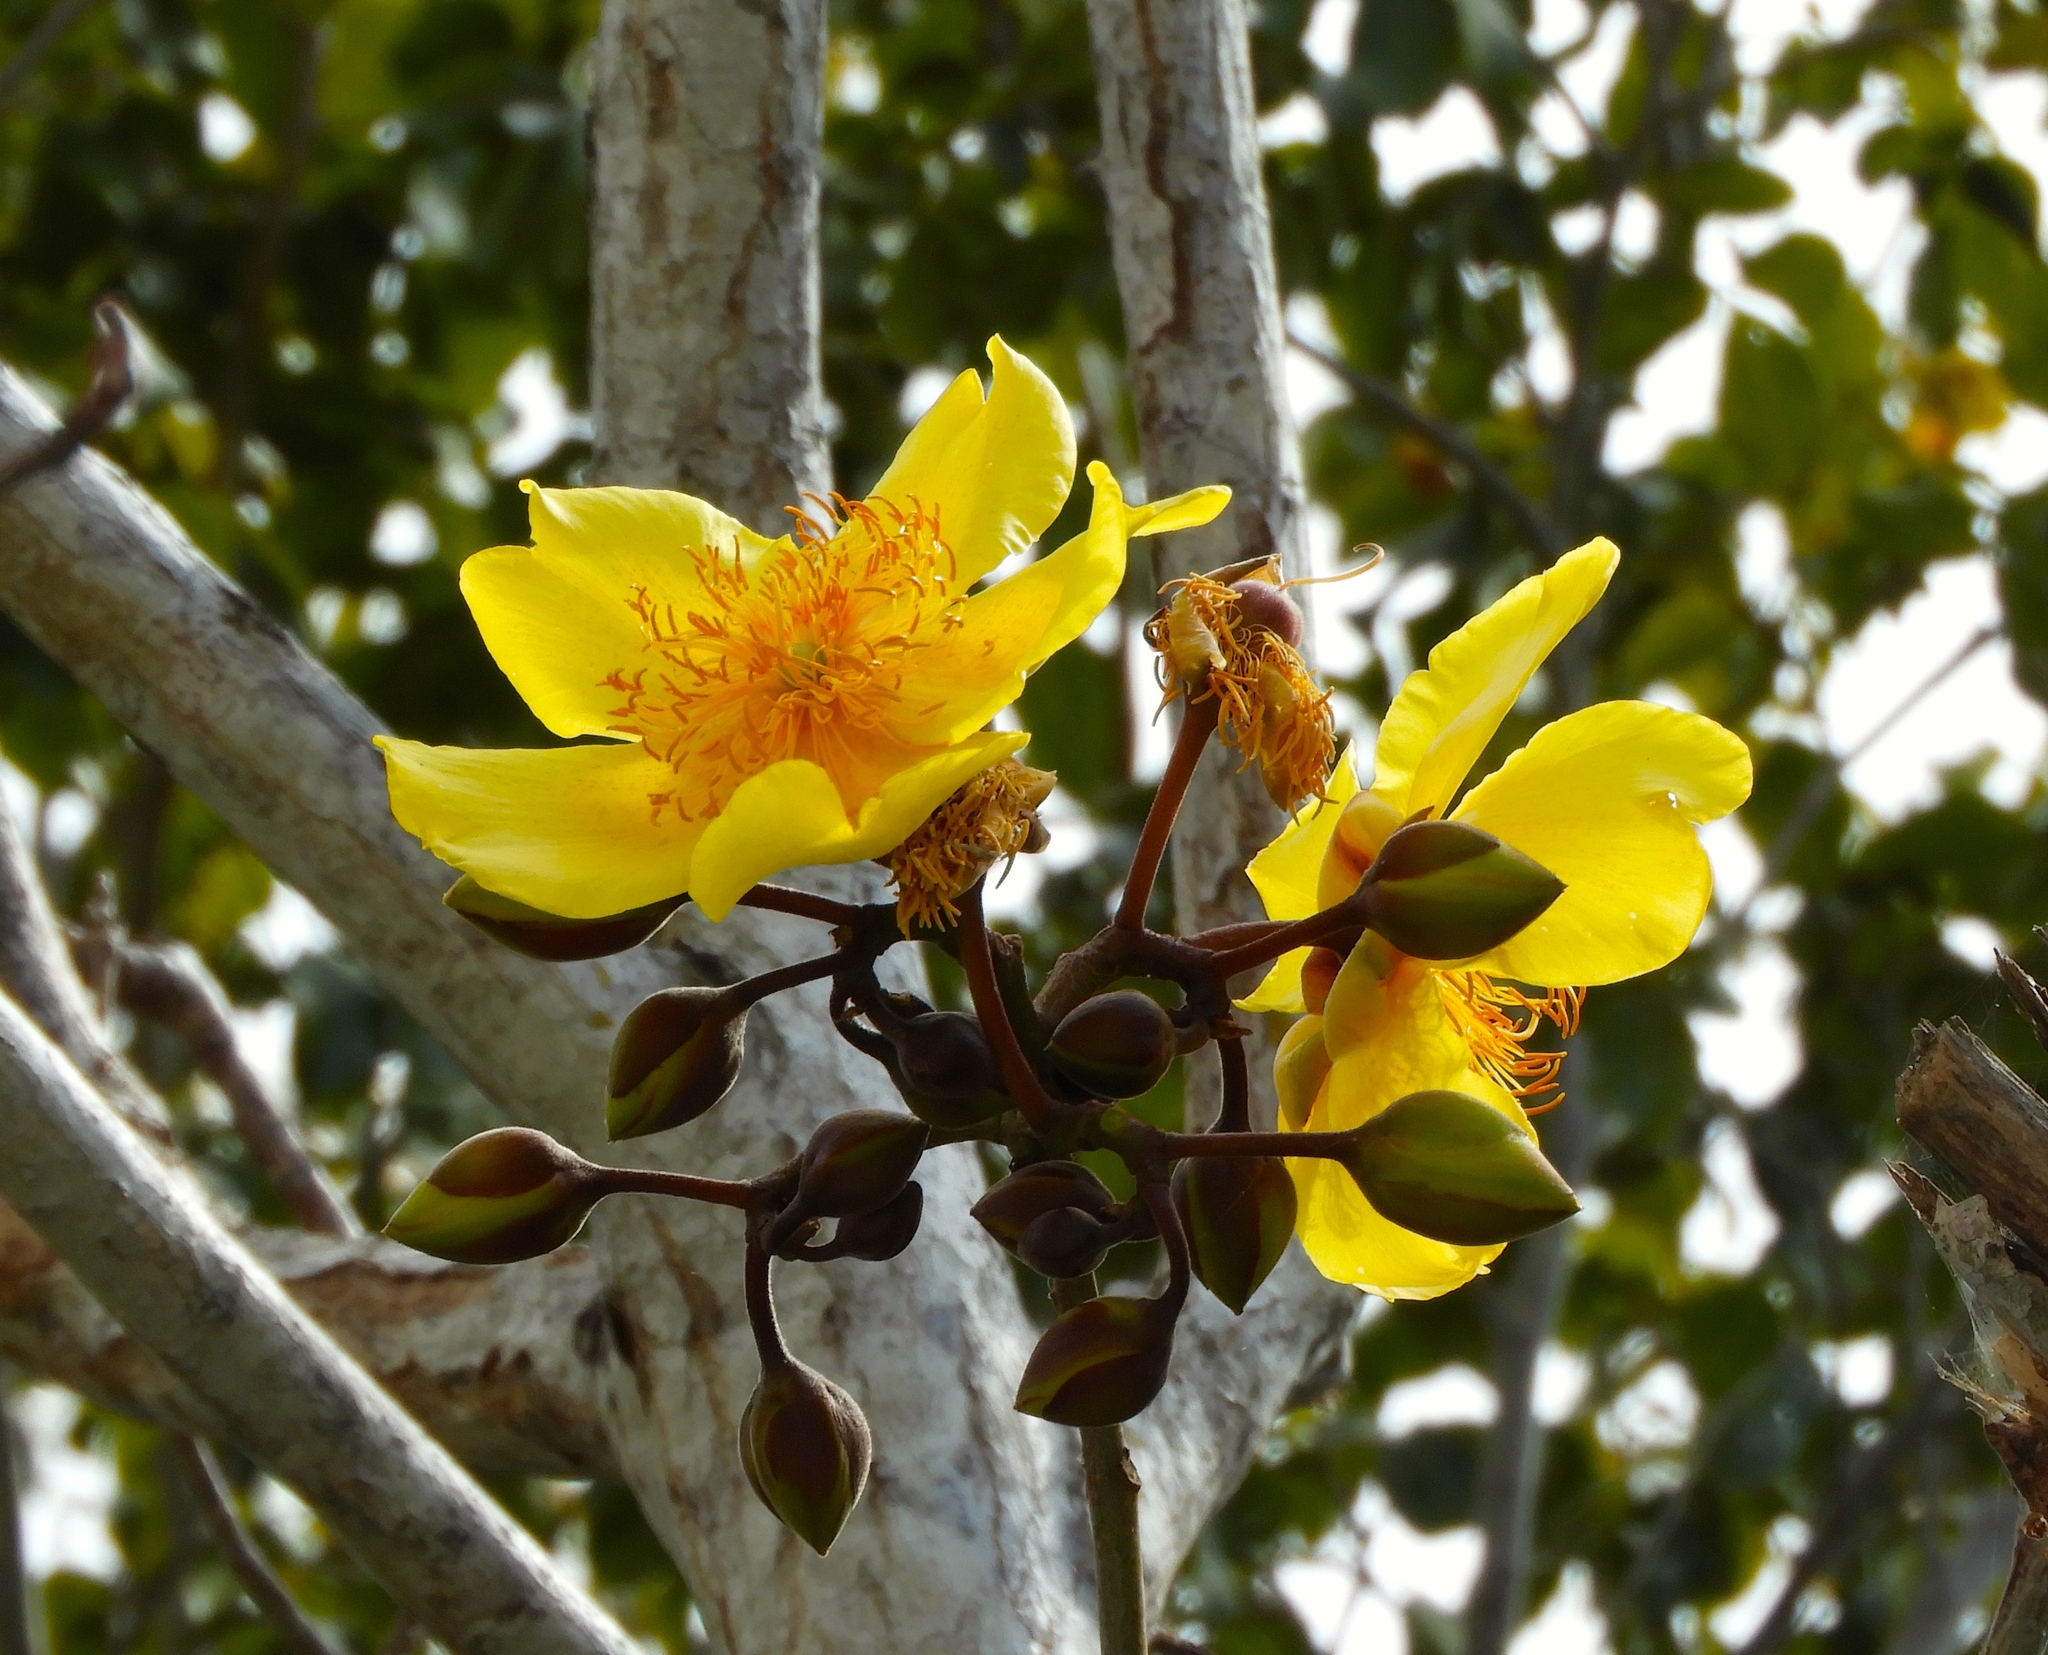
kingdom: Plantae
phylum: Tracheophyta
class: Magnoliopsida
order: Malvales
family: Cochlospermaceae
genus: Cochlospermum
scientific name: Cochlospermum vitifolium
